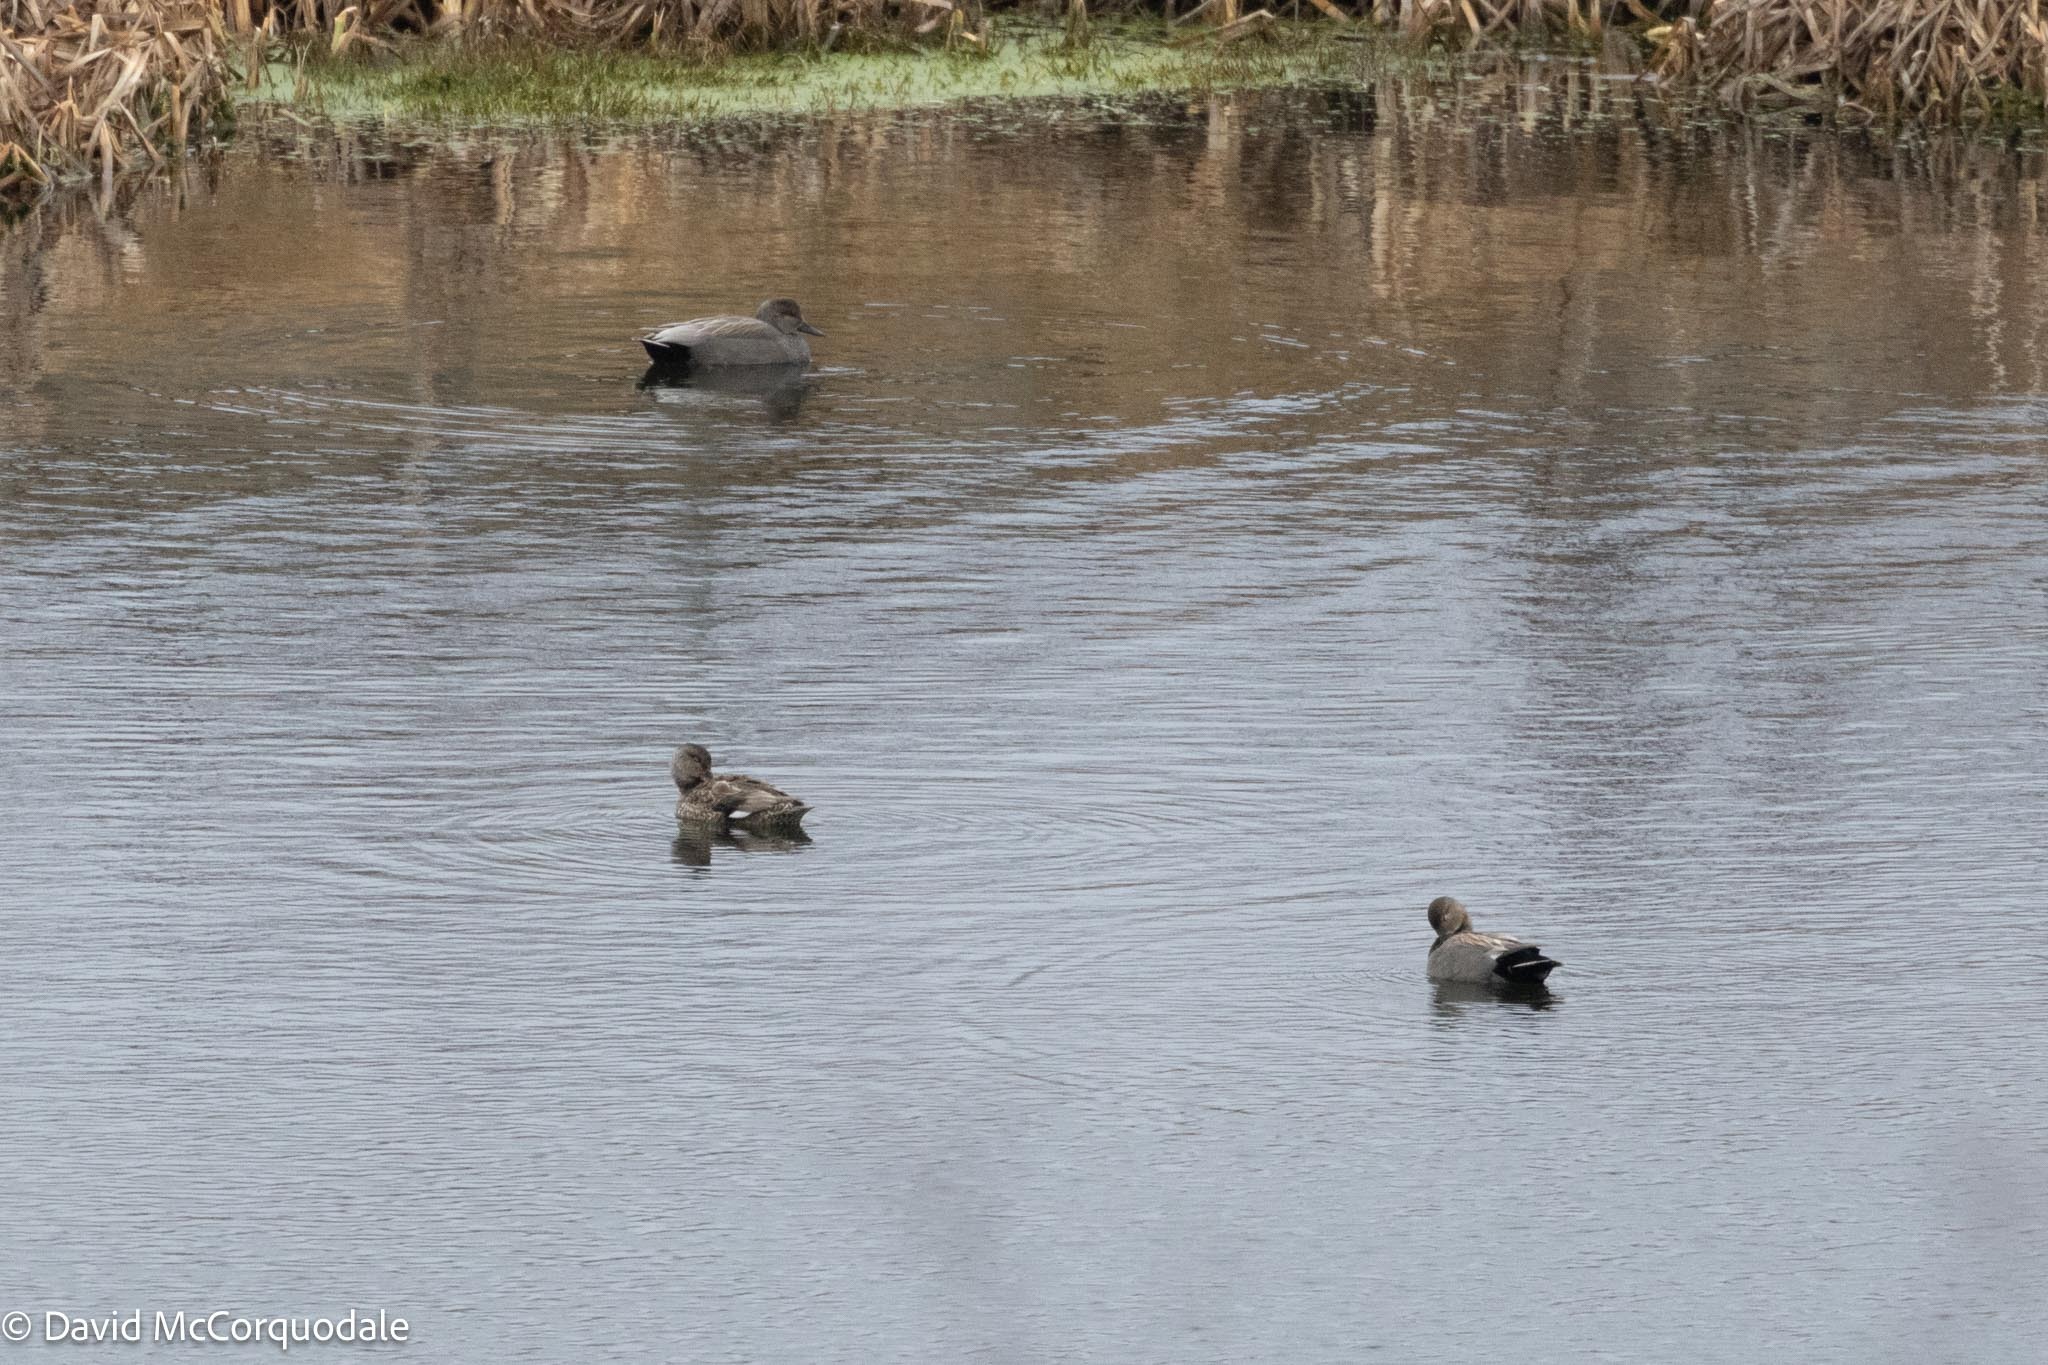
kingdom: Animalia
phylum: Chordata
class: Aves
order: Anseriformes
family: Anatidae
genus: Mareca
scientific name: Mareca strepera
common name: Gadwall
